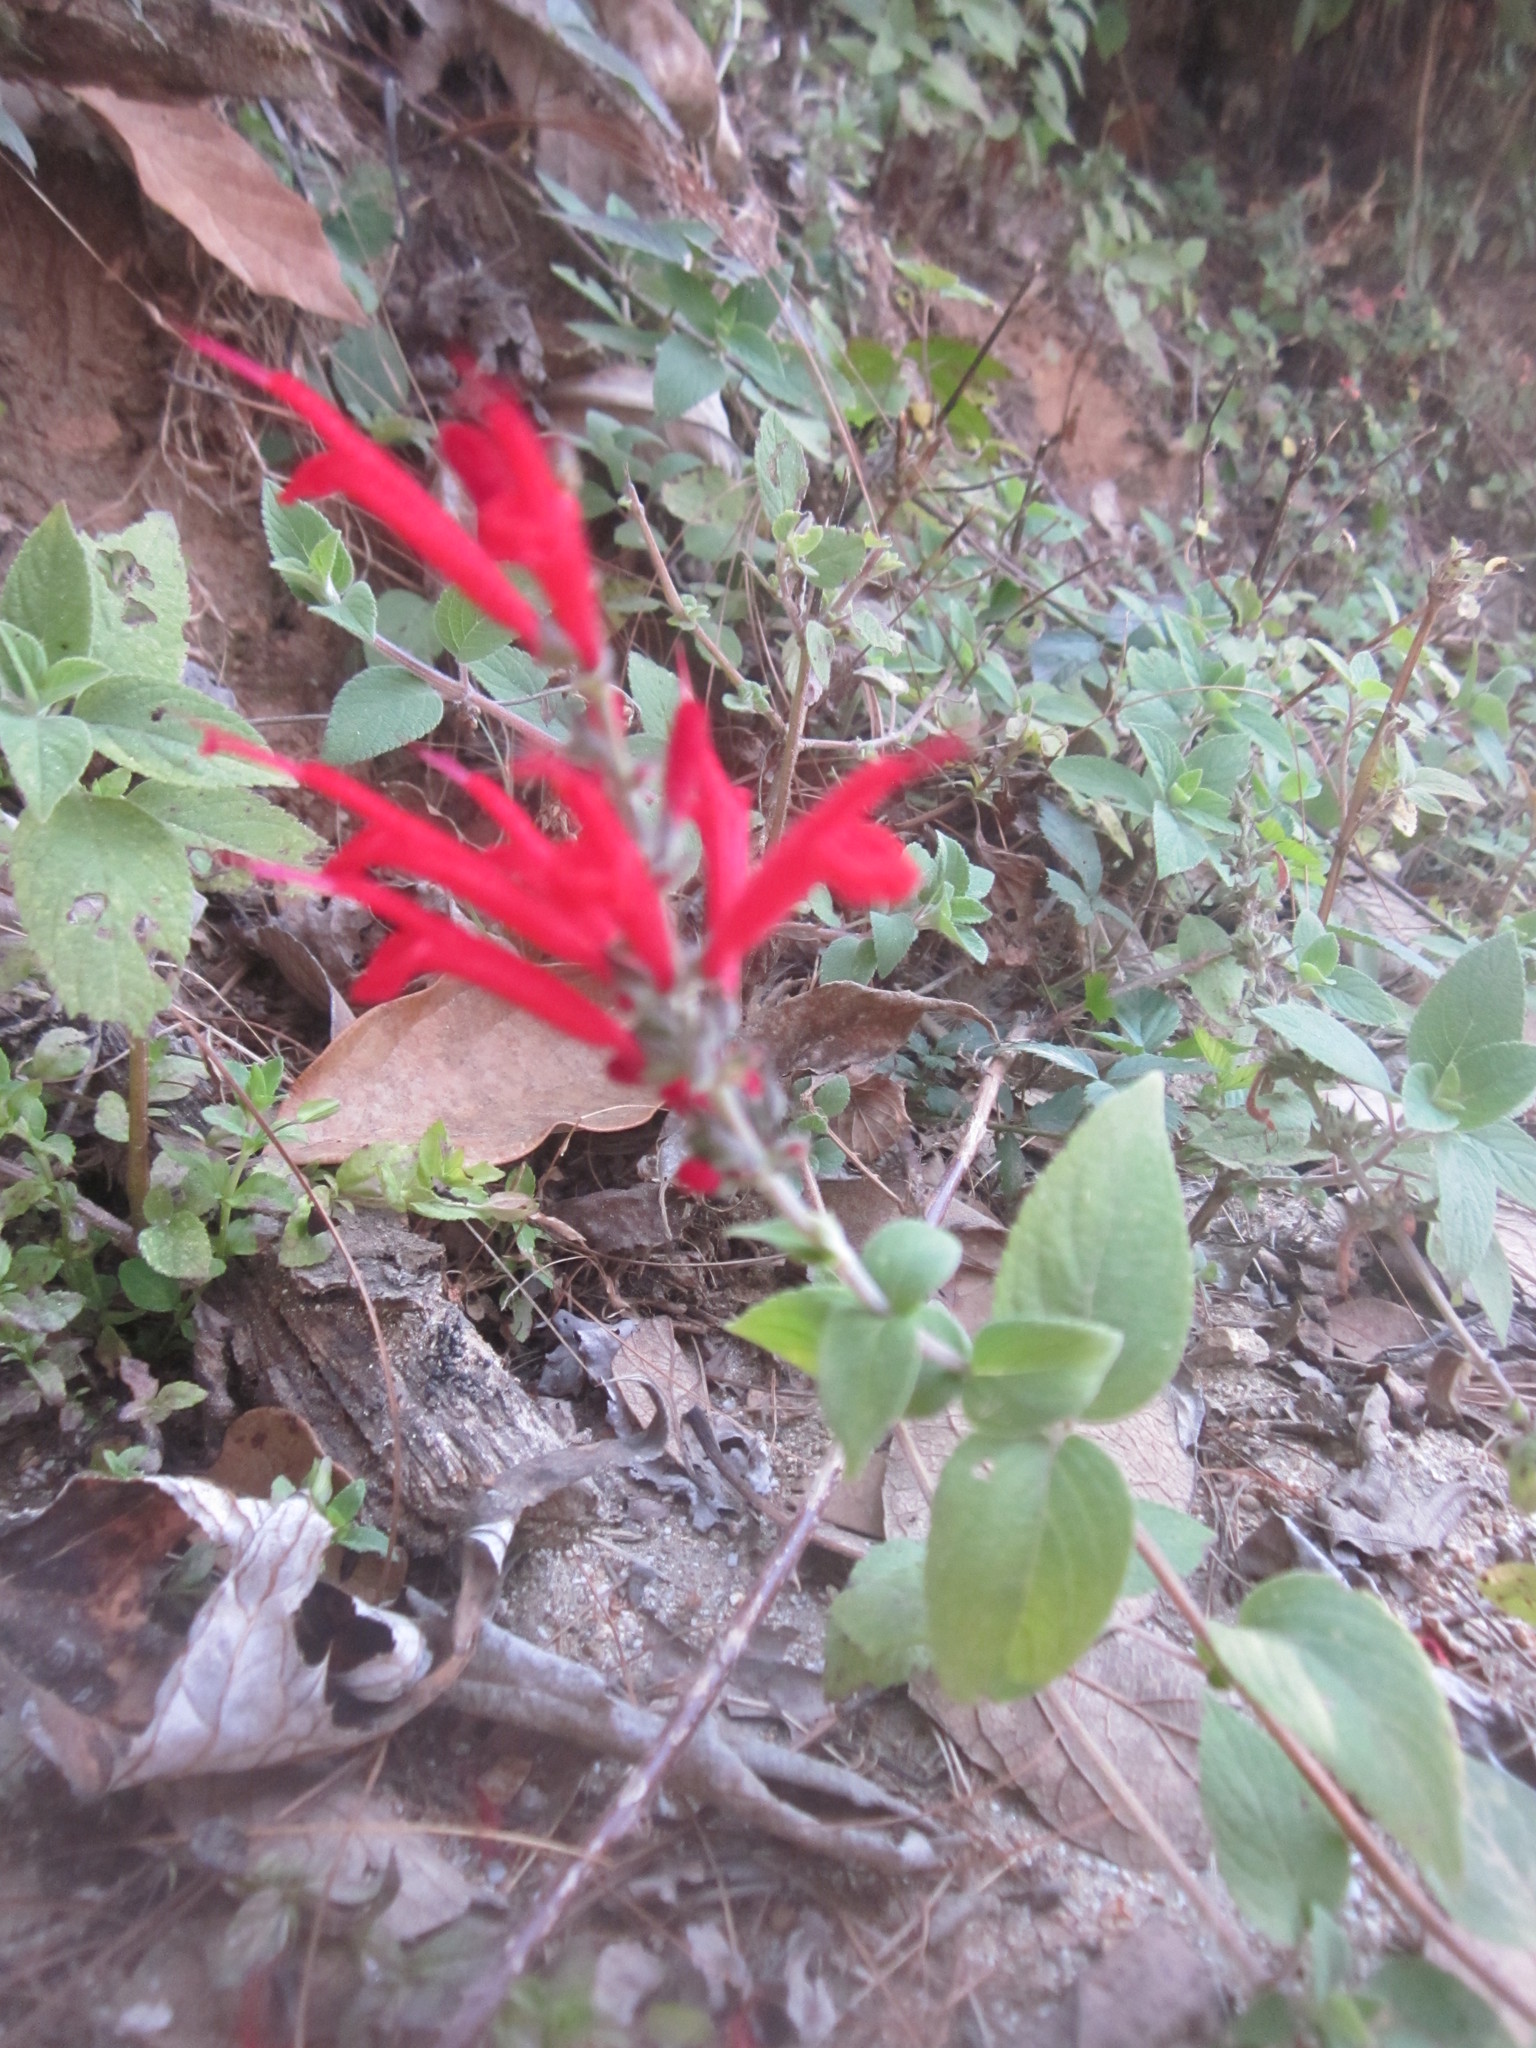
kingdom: Plantae
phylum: Tracheophyta
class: Magnoliopsida
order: Lamiales
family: Lamiaceae
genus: Salvia
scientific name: Salvia cinnabarina
